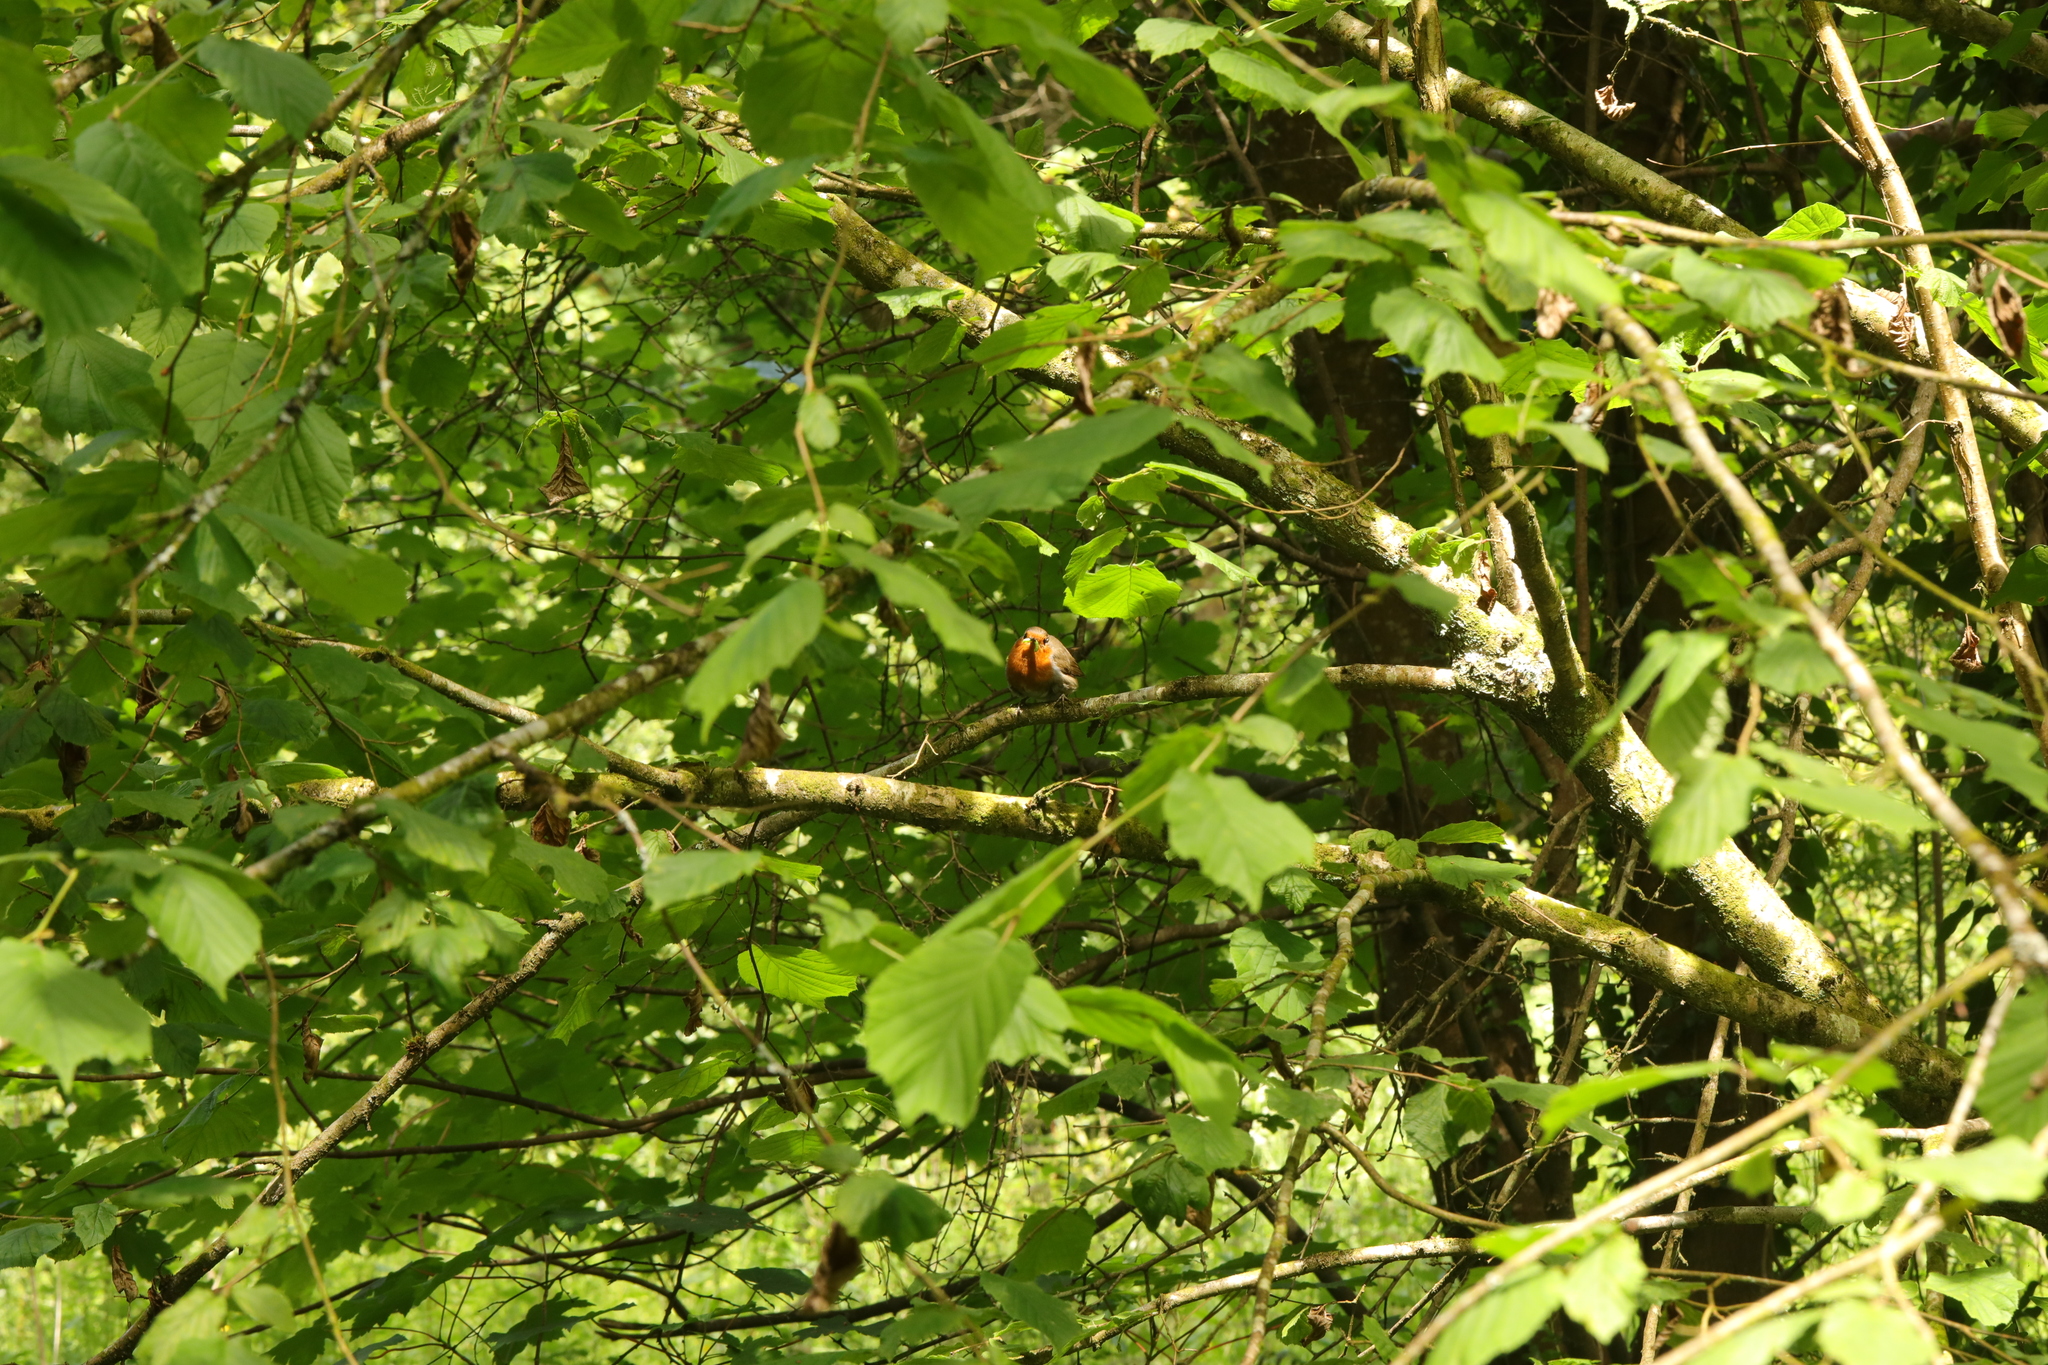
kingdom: Animalia
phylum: Chordata
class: Aves
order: Passeriformes
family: Muscicapidae
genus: Erithacus
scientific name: Erithacus rubecula
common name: European robin
